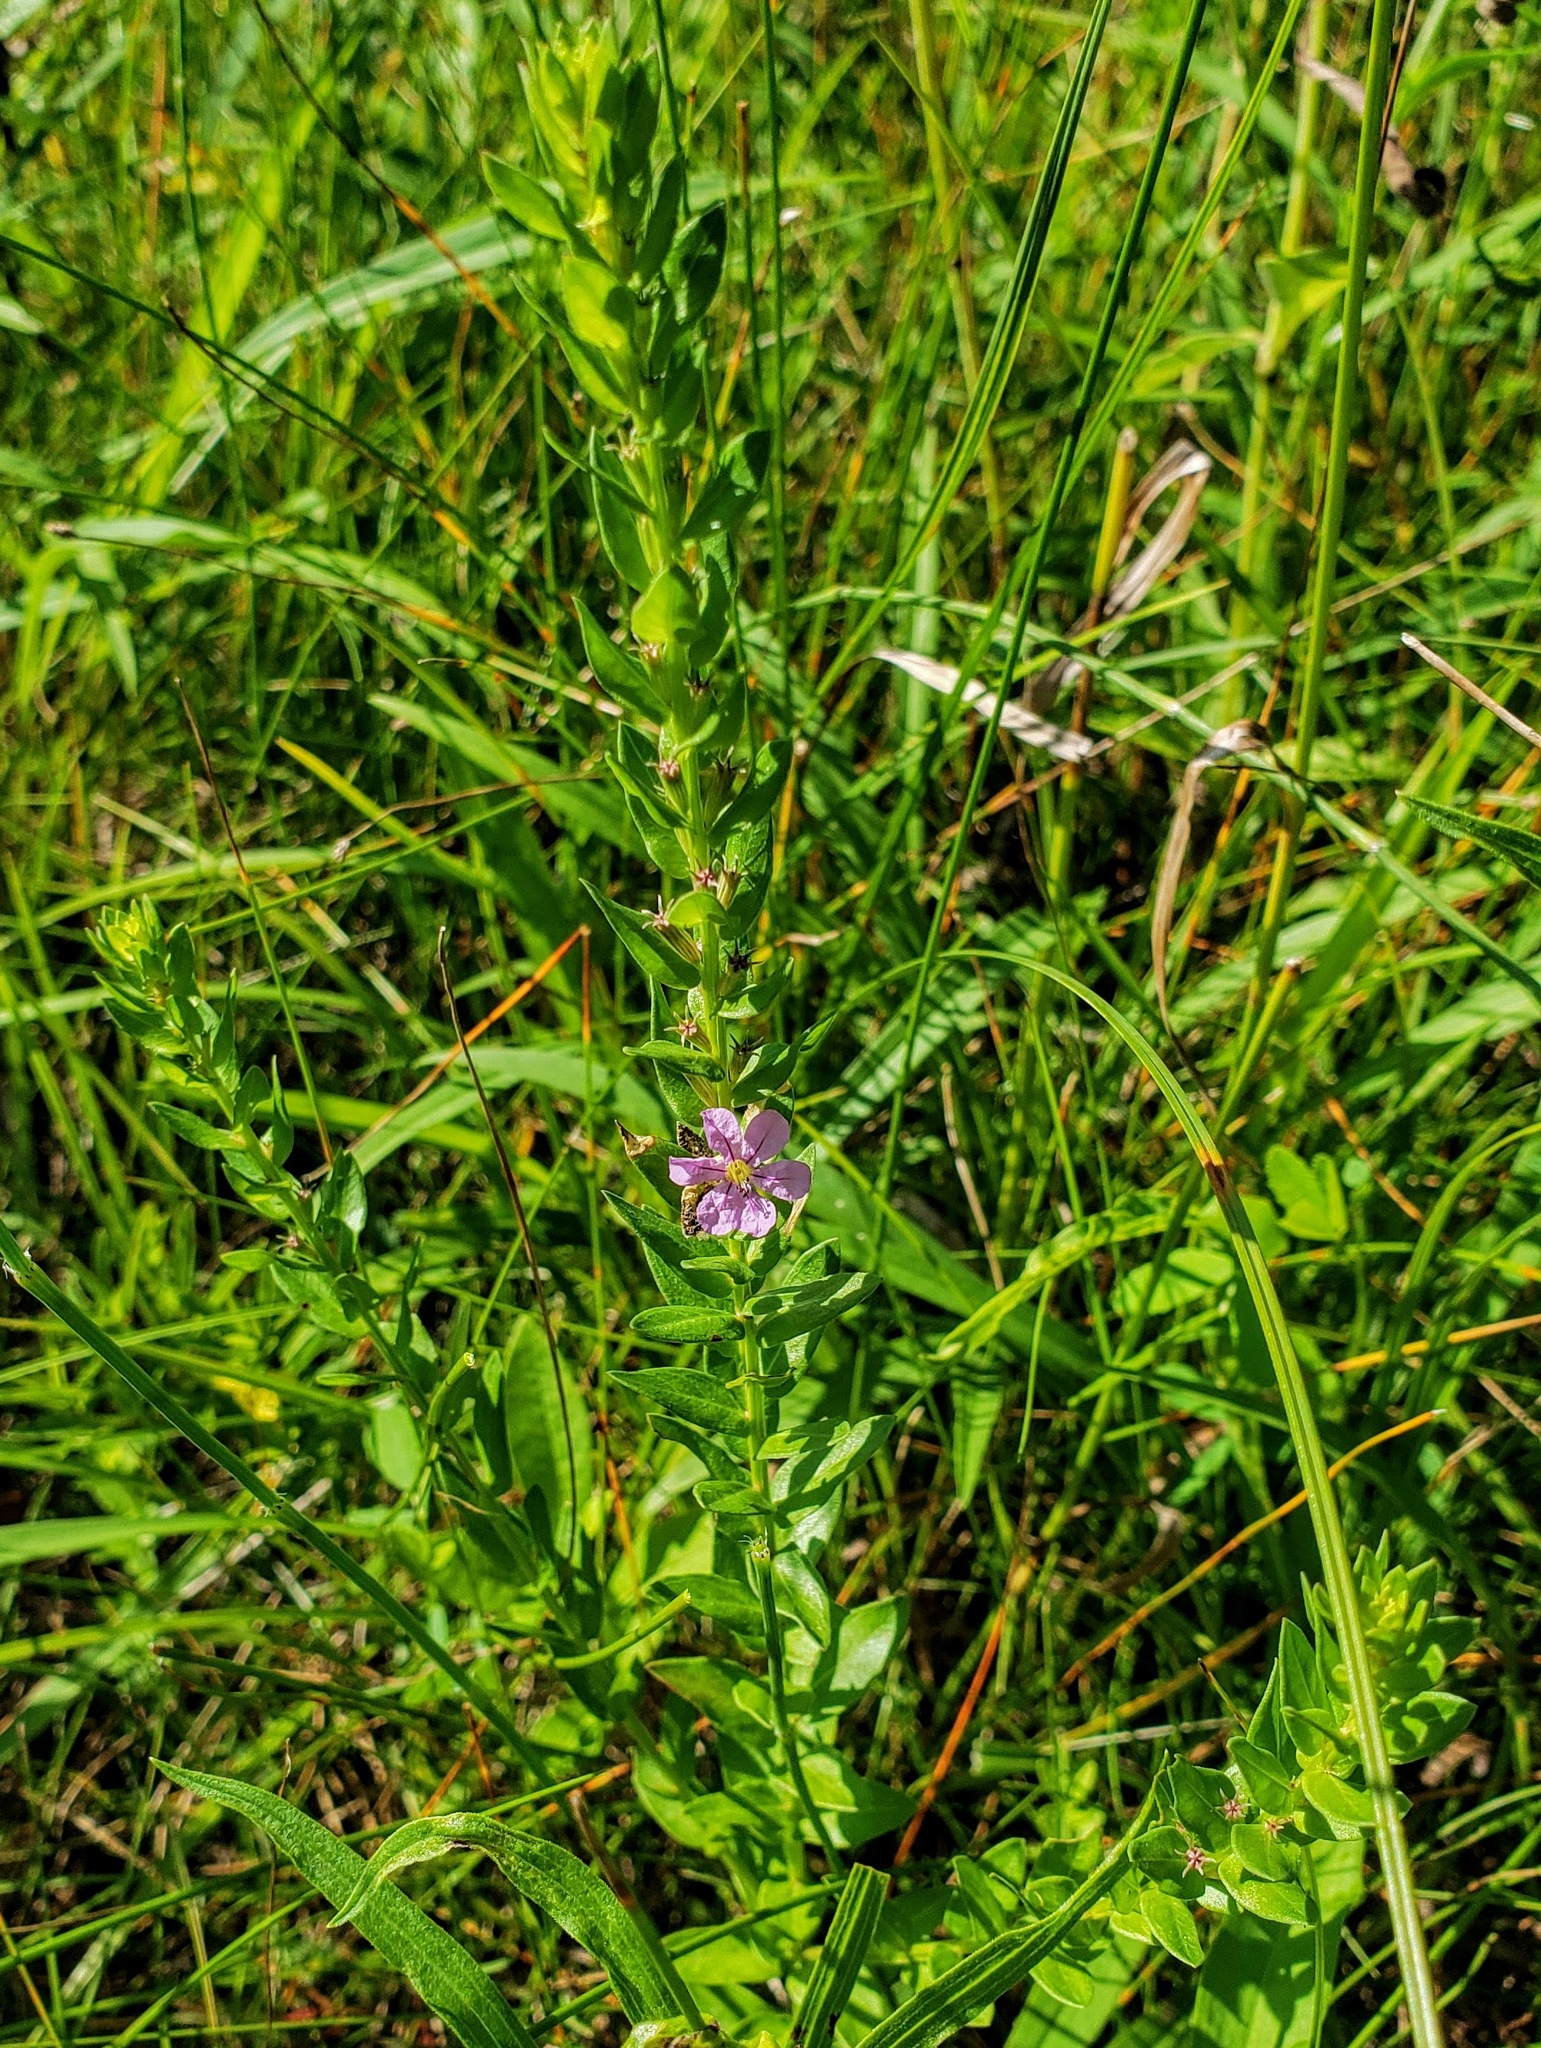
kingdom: Plantae
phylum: Tracheophyta
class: Magnoliopsida
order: Myrtales
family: Lythraceae
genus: Lythrum
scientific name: Lythrum alatum
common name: Winged loosestrife
